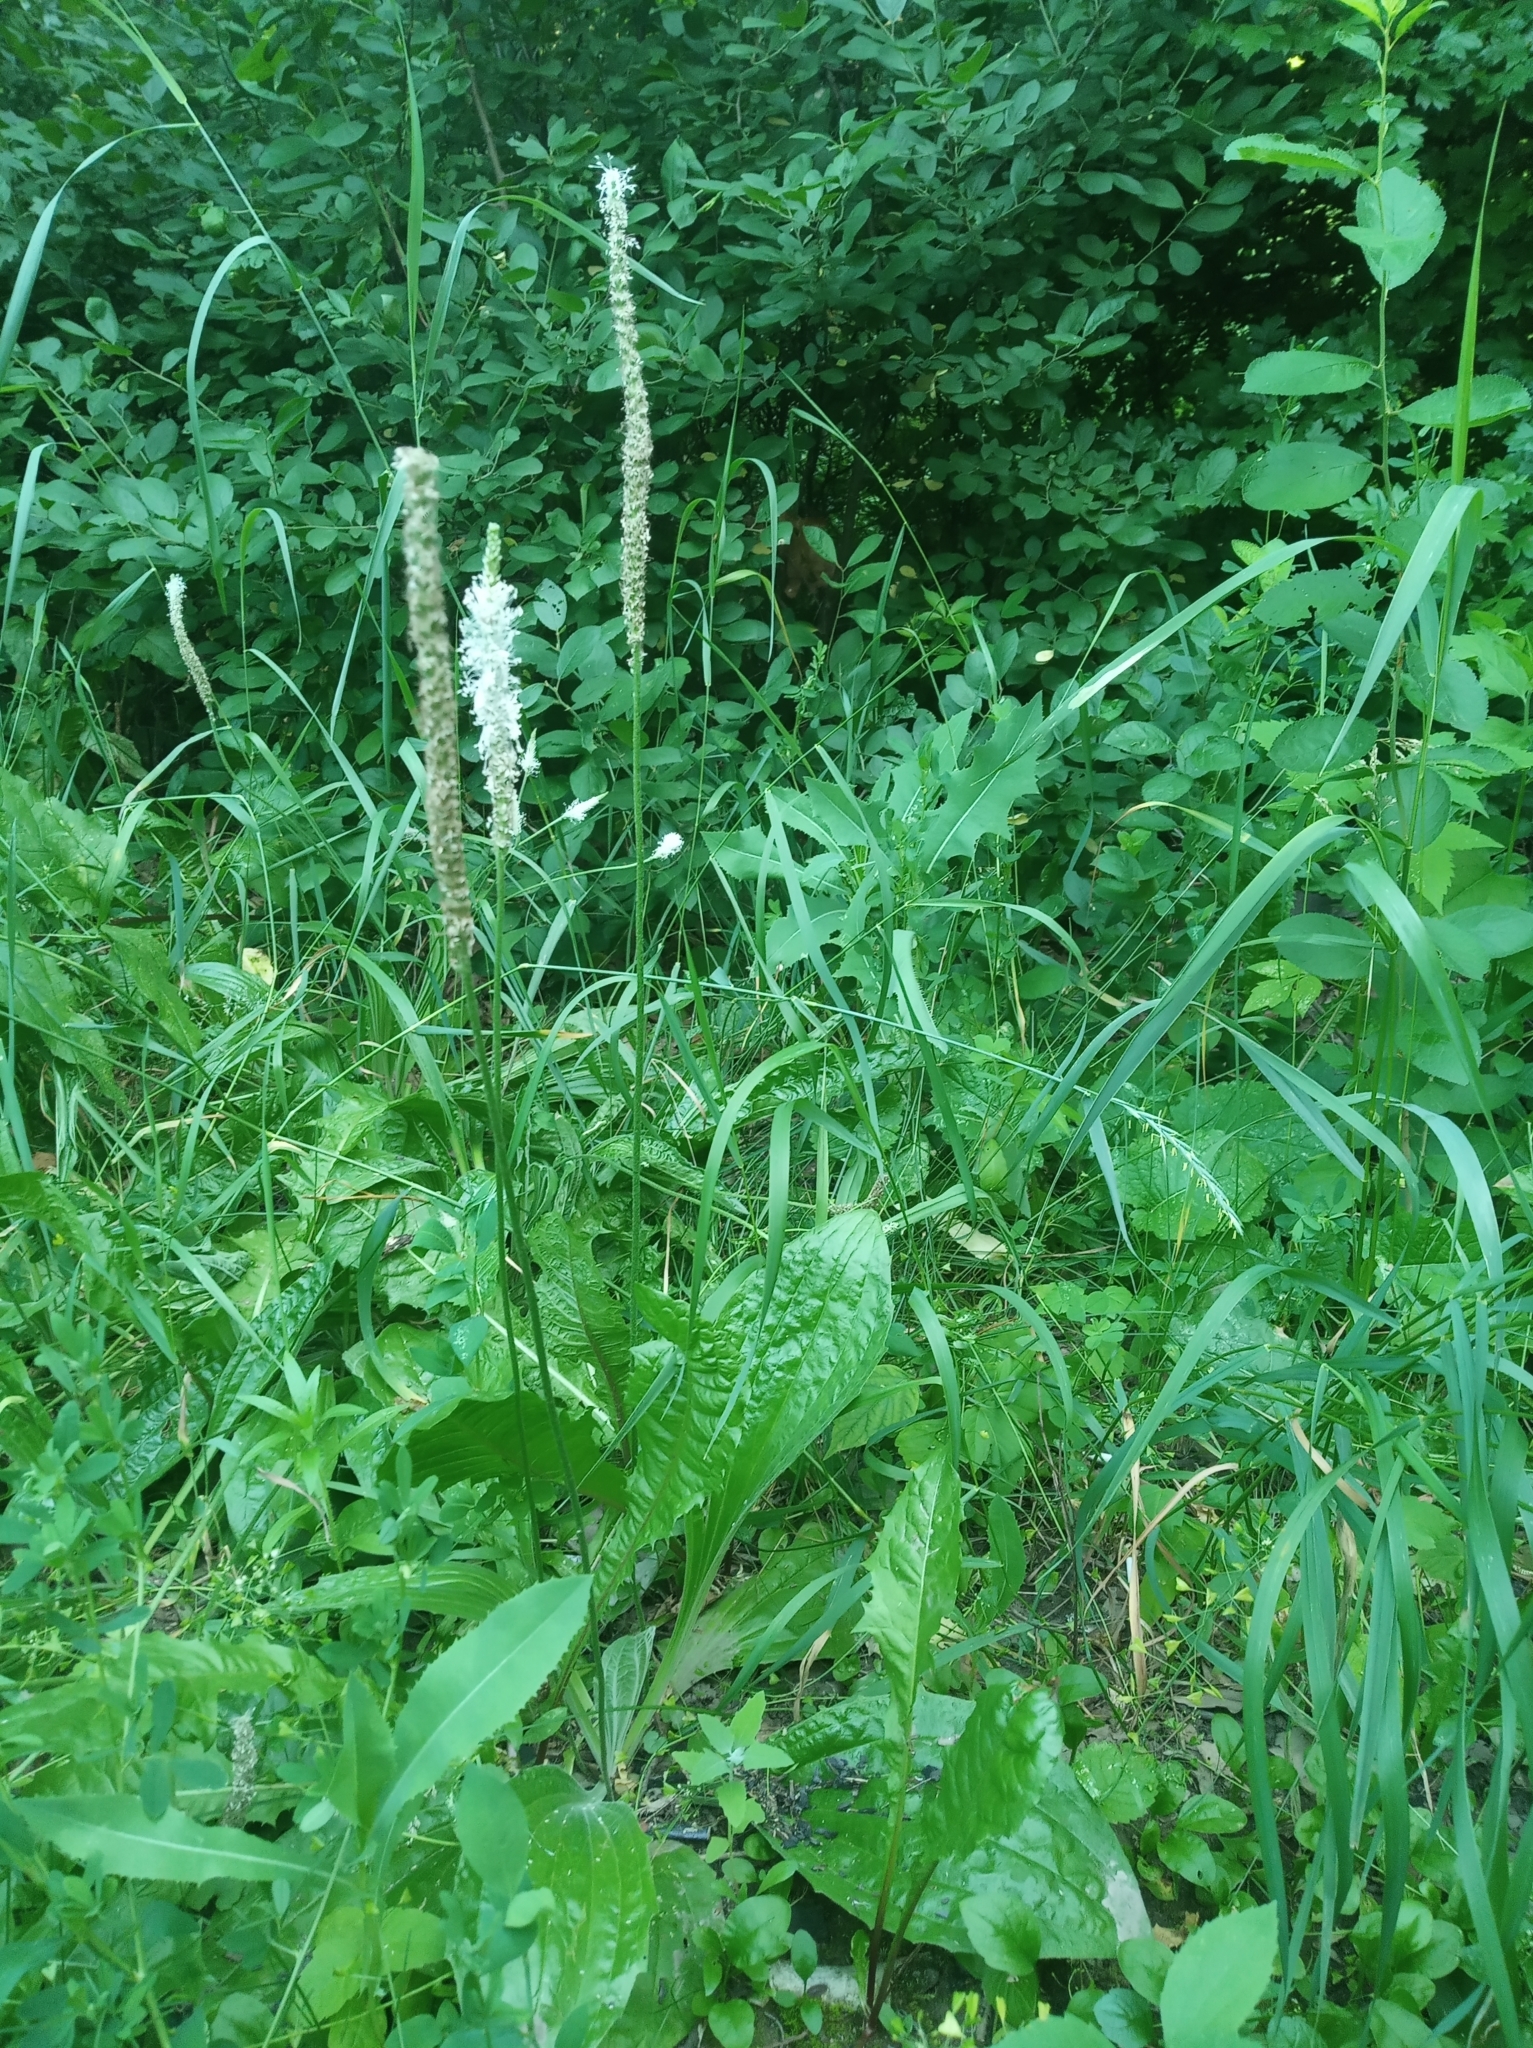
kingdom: Plantae
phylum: Tracheophyta
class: Magnoliopsida
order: Lamiales
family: Plantaginaceae
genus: Plantago
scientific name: Plantago major
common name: Common plantain
